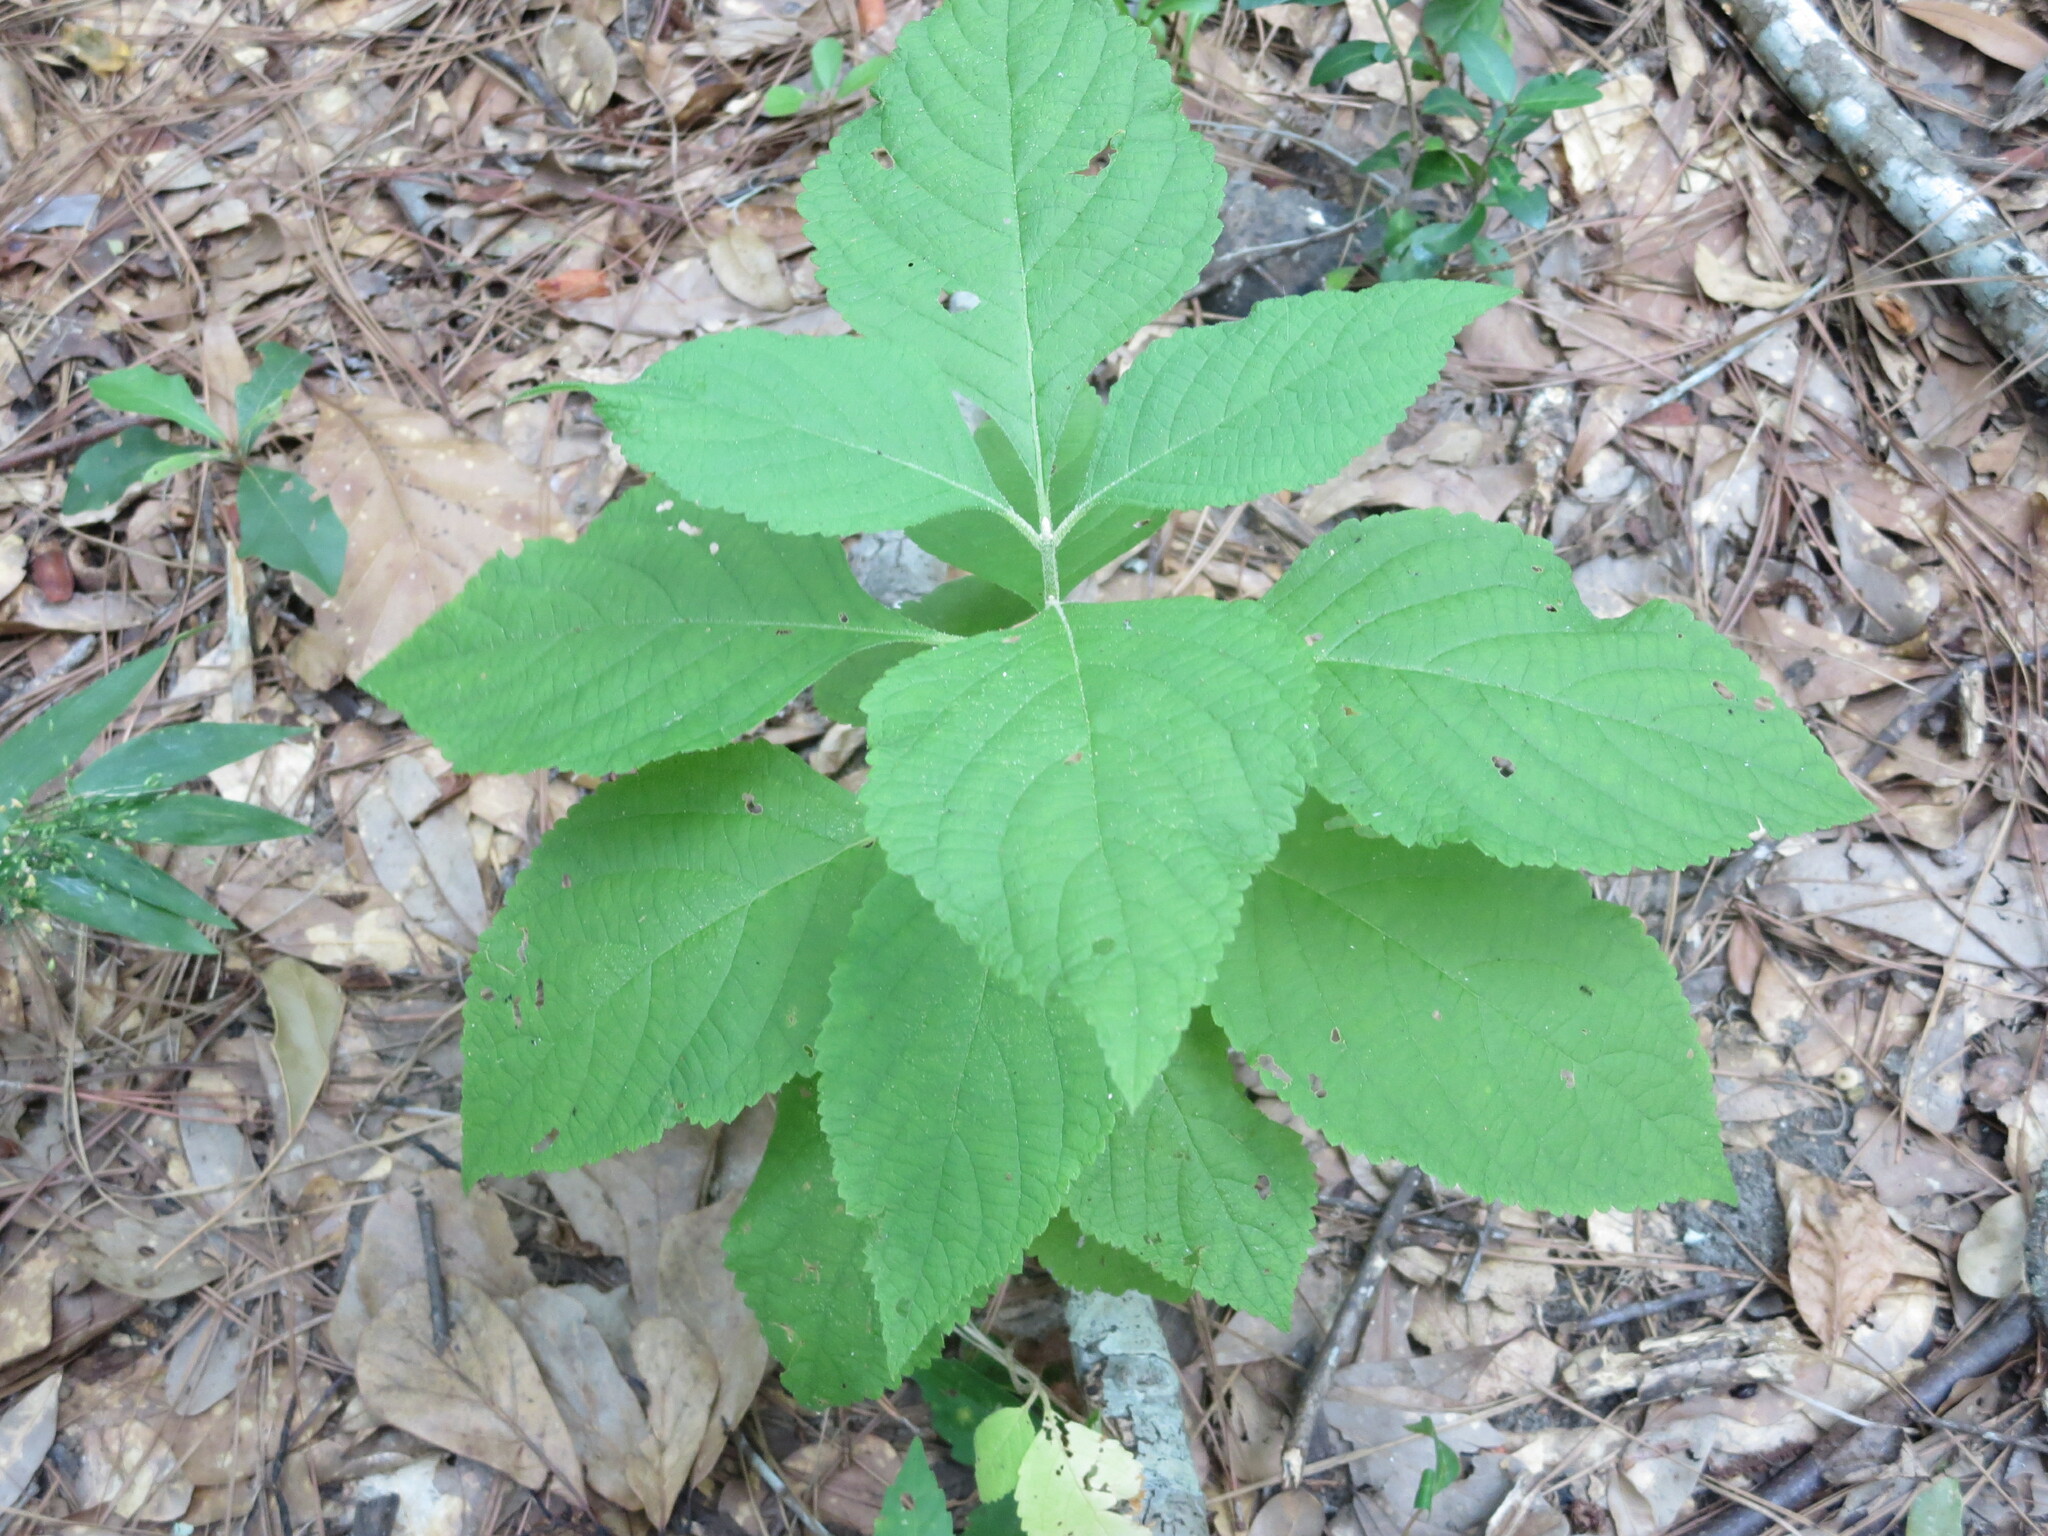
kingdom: Plantae
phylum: Tracheophyta
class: Magnoliopsida
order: Lamiales
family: Lamiaceae
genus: Callicarpa
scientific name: Callicarpa americana
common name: American beautyberry
